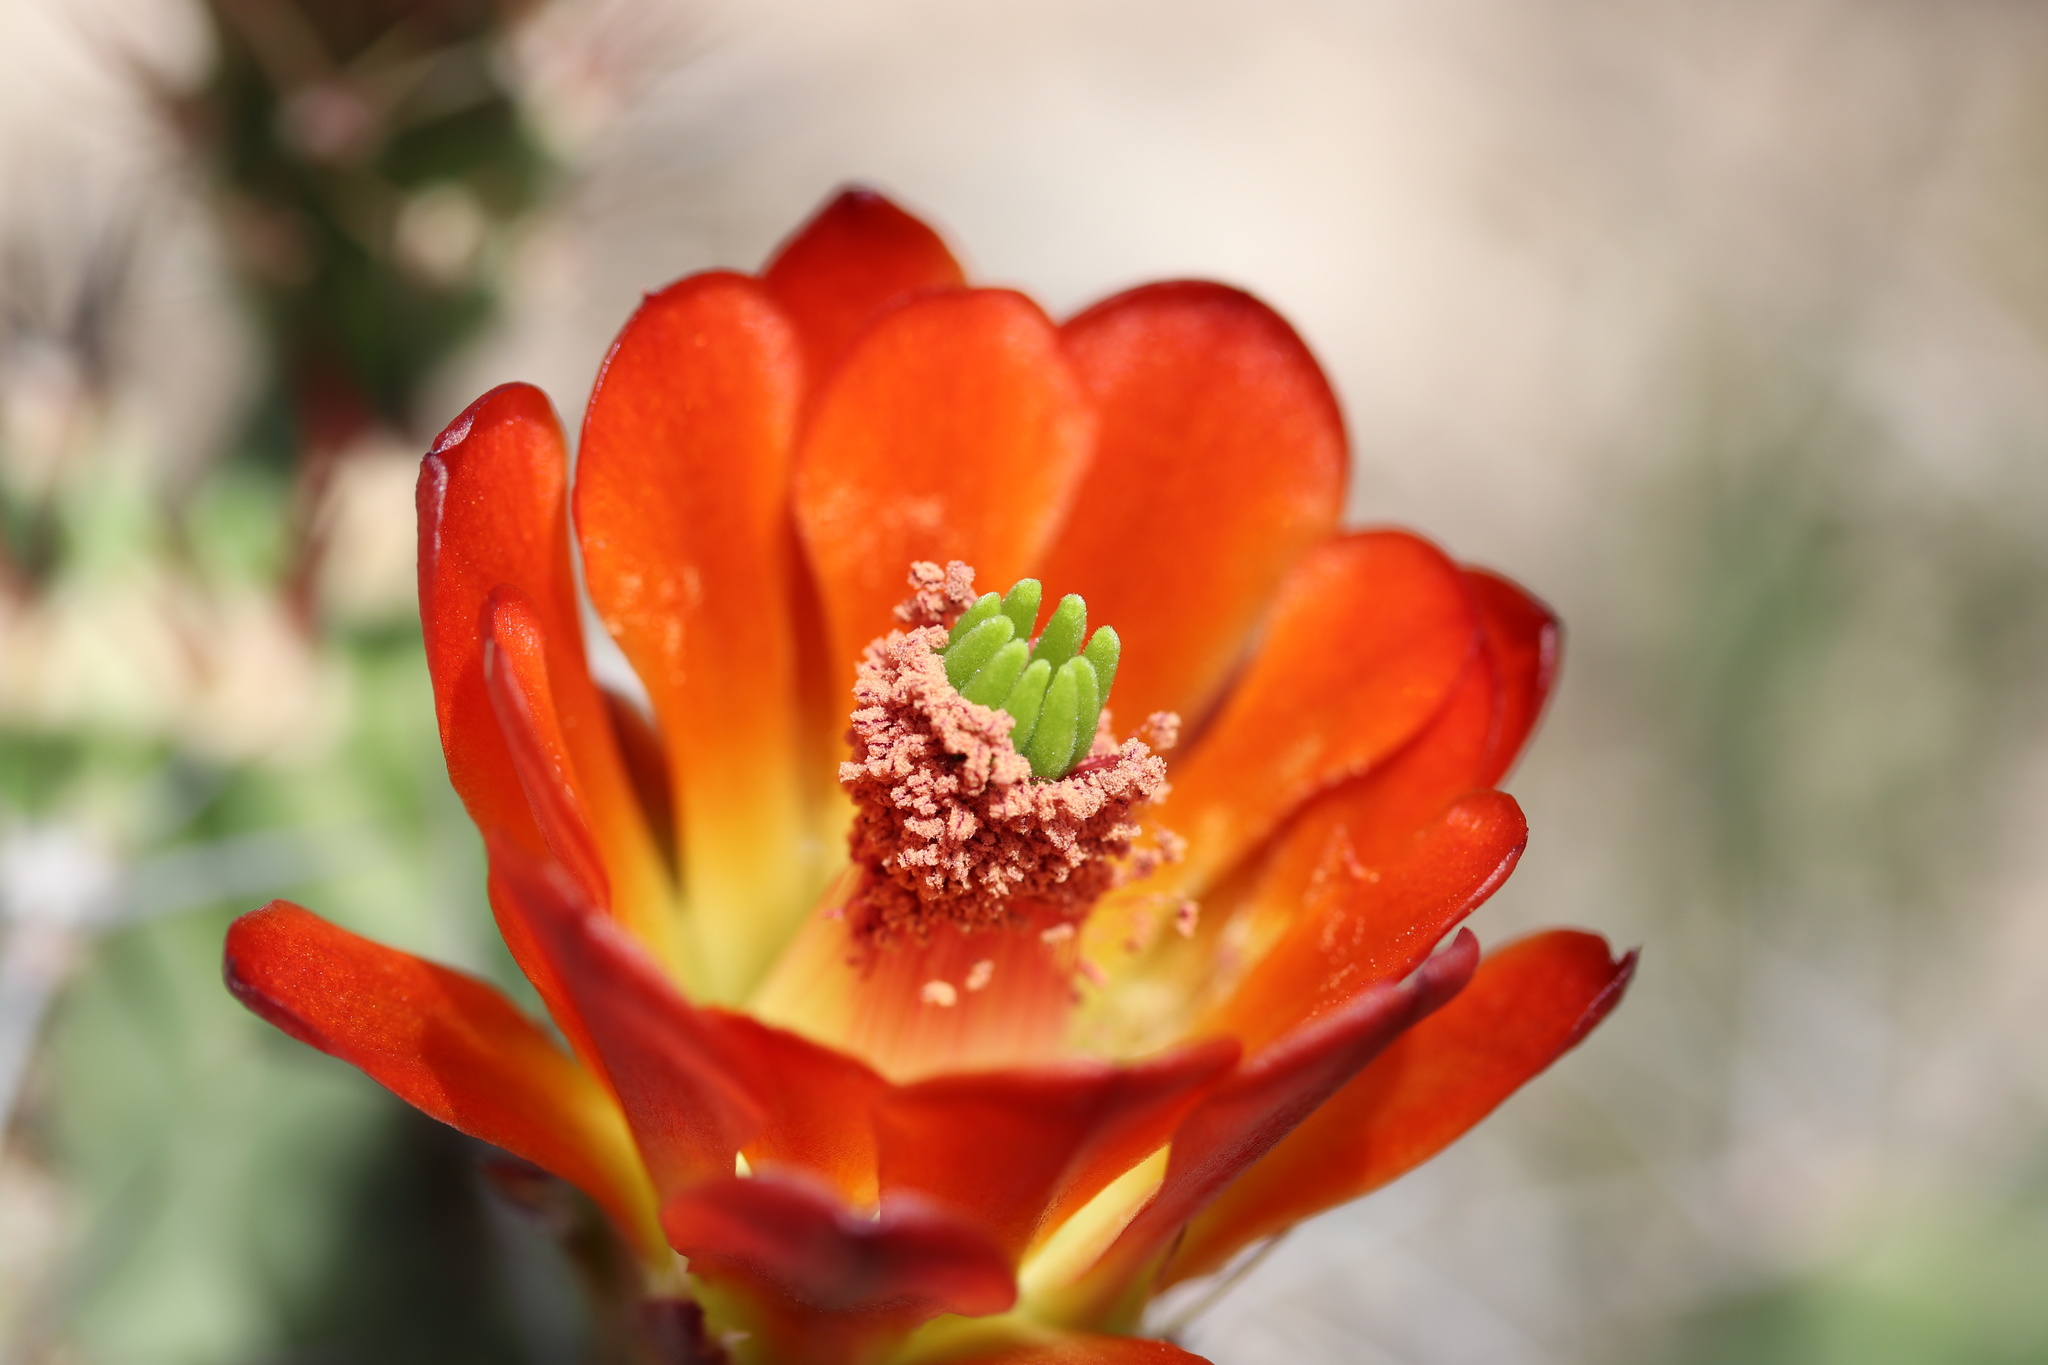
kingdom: Plantae
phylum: Tracheophyta
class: Magnoliopsida
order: Caryophyllales
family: Cactaceae
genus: Echinocereus
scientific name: Echinocereus coccineus
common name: Scarlet hedgehog cactus
